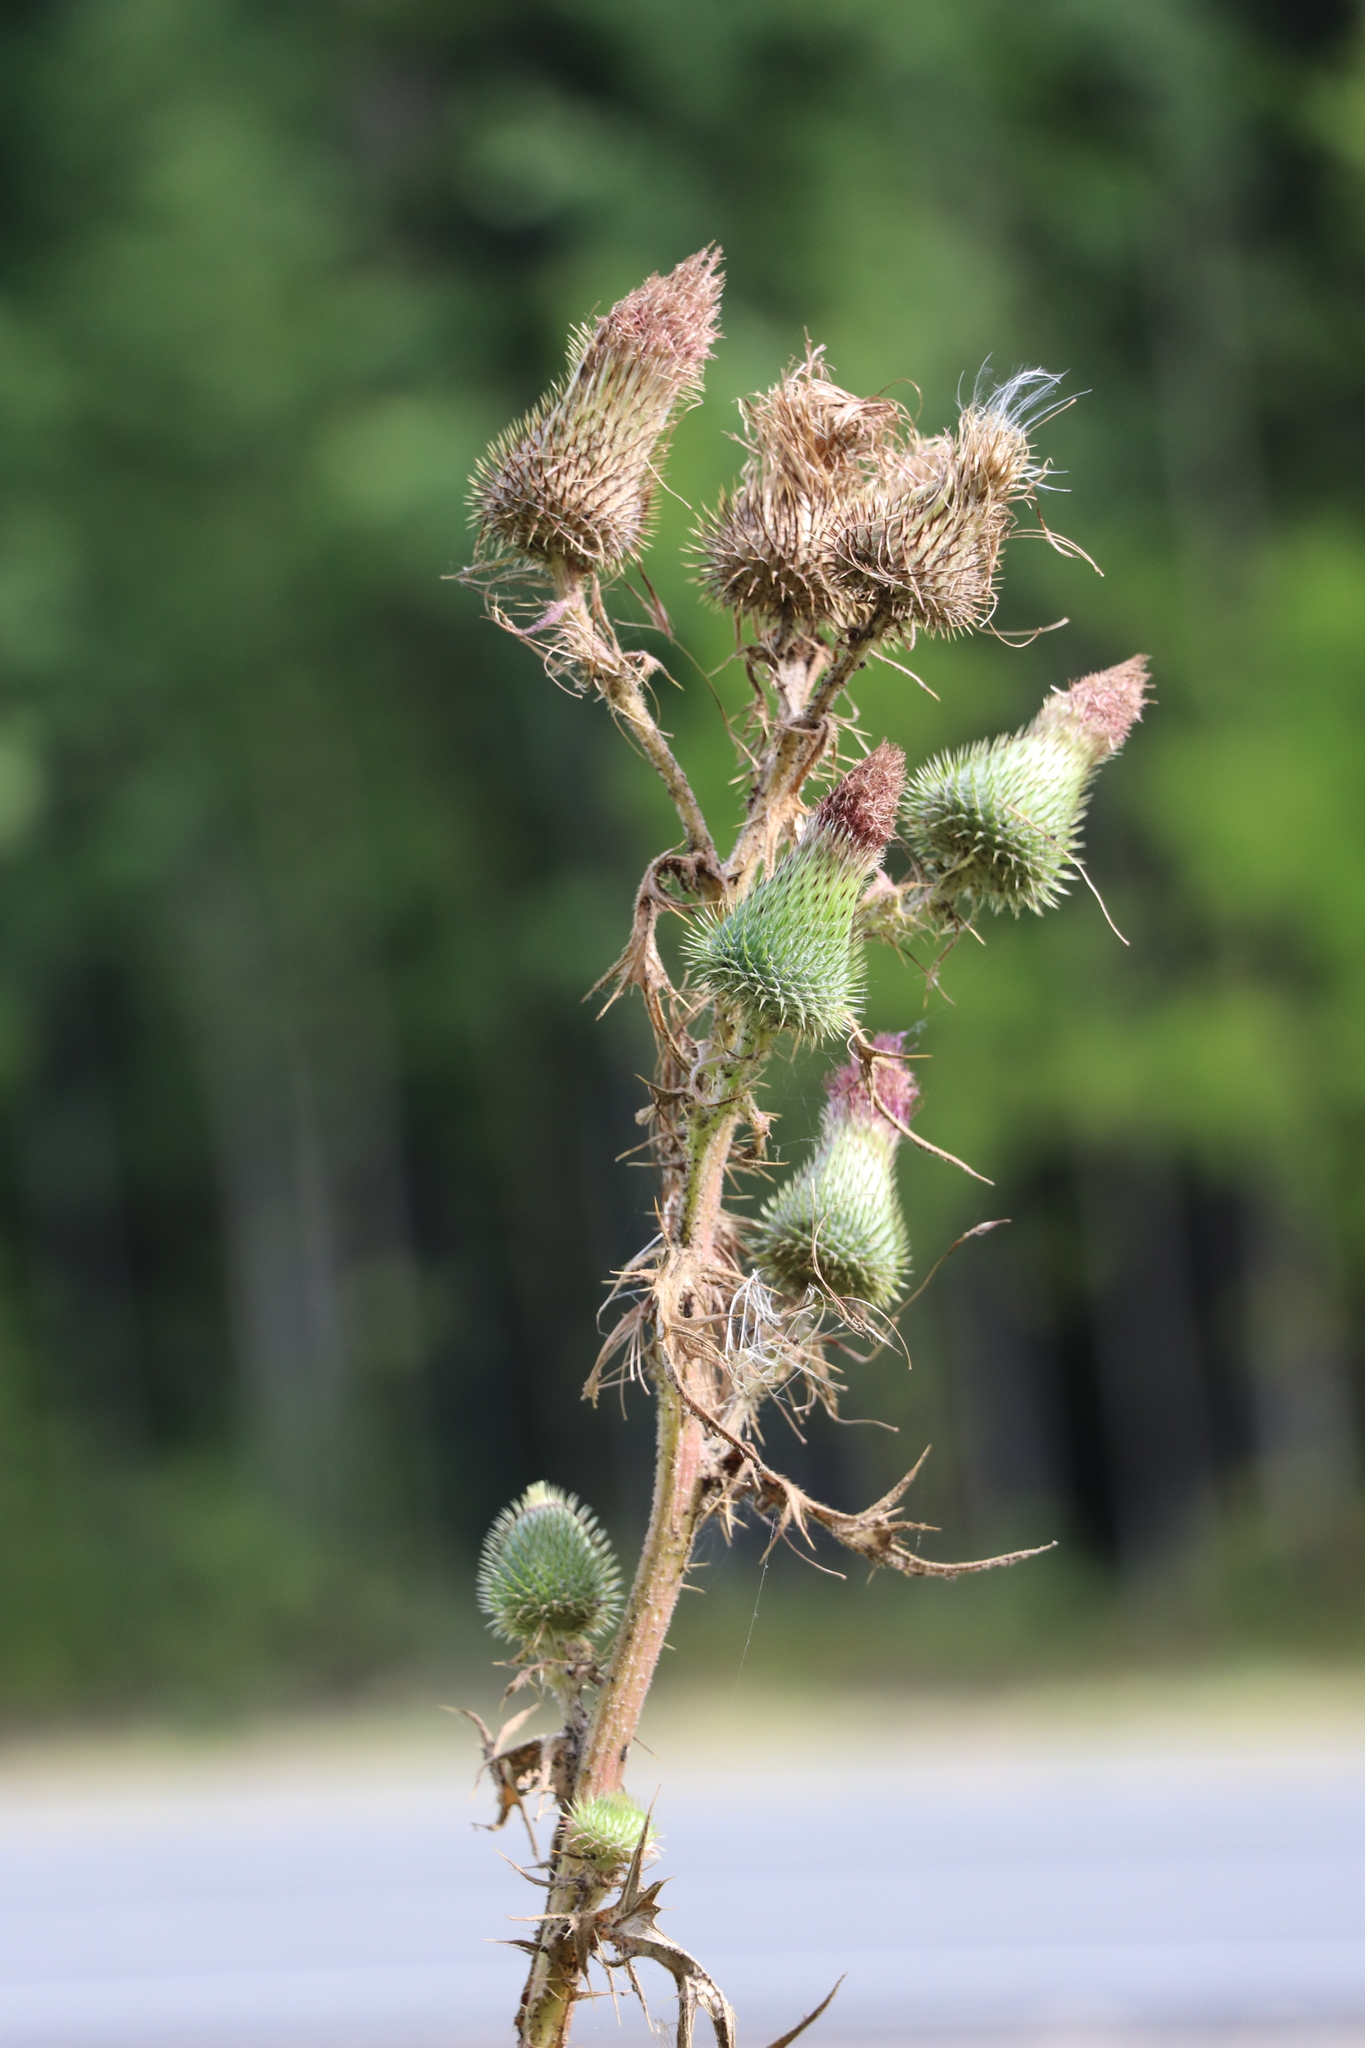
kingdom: Plantae
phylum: Tracheophyta
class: Magnoliopsida
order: Asterales
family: Asteraceae
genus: Cirsium
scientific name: Cirsium vulgare
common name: Bull thistle
